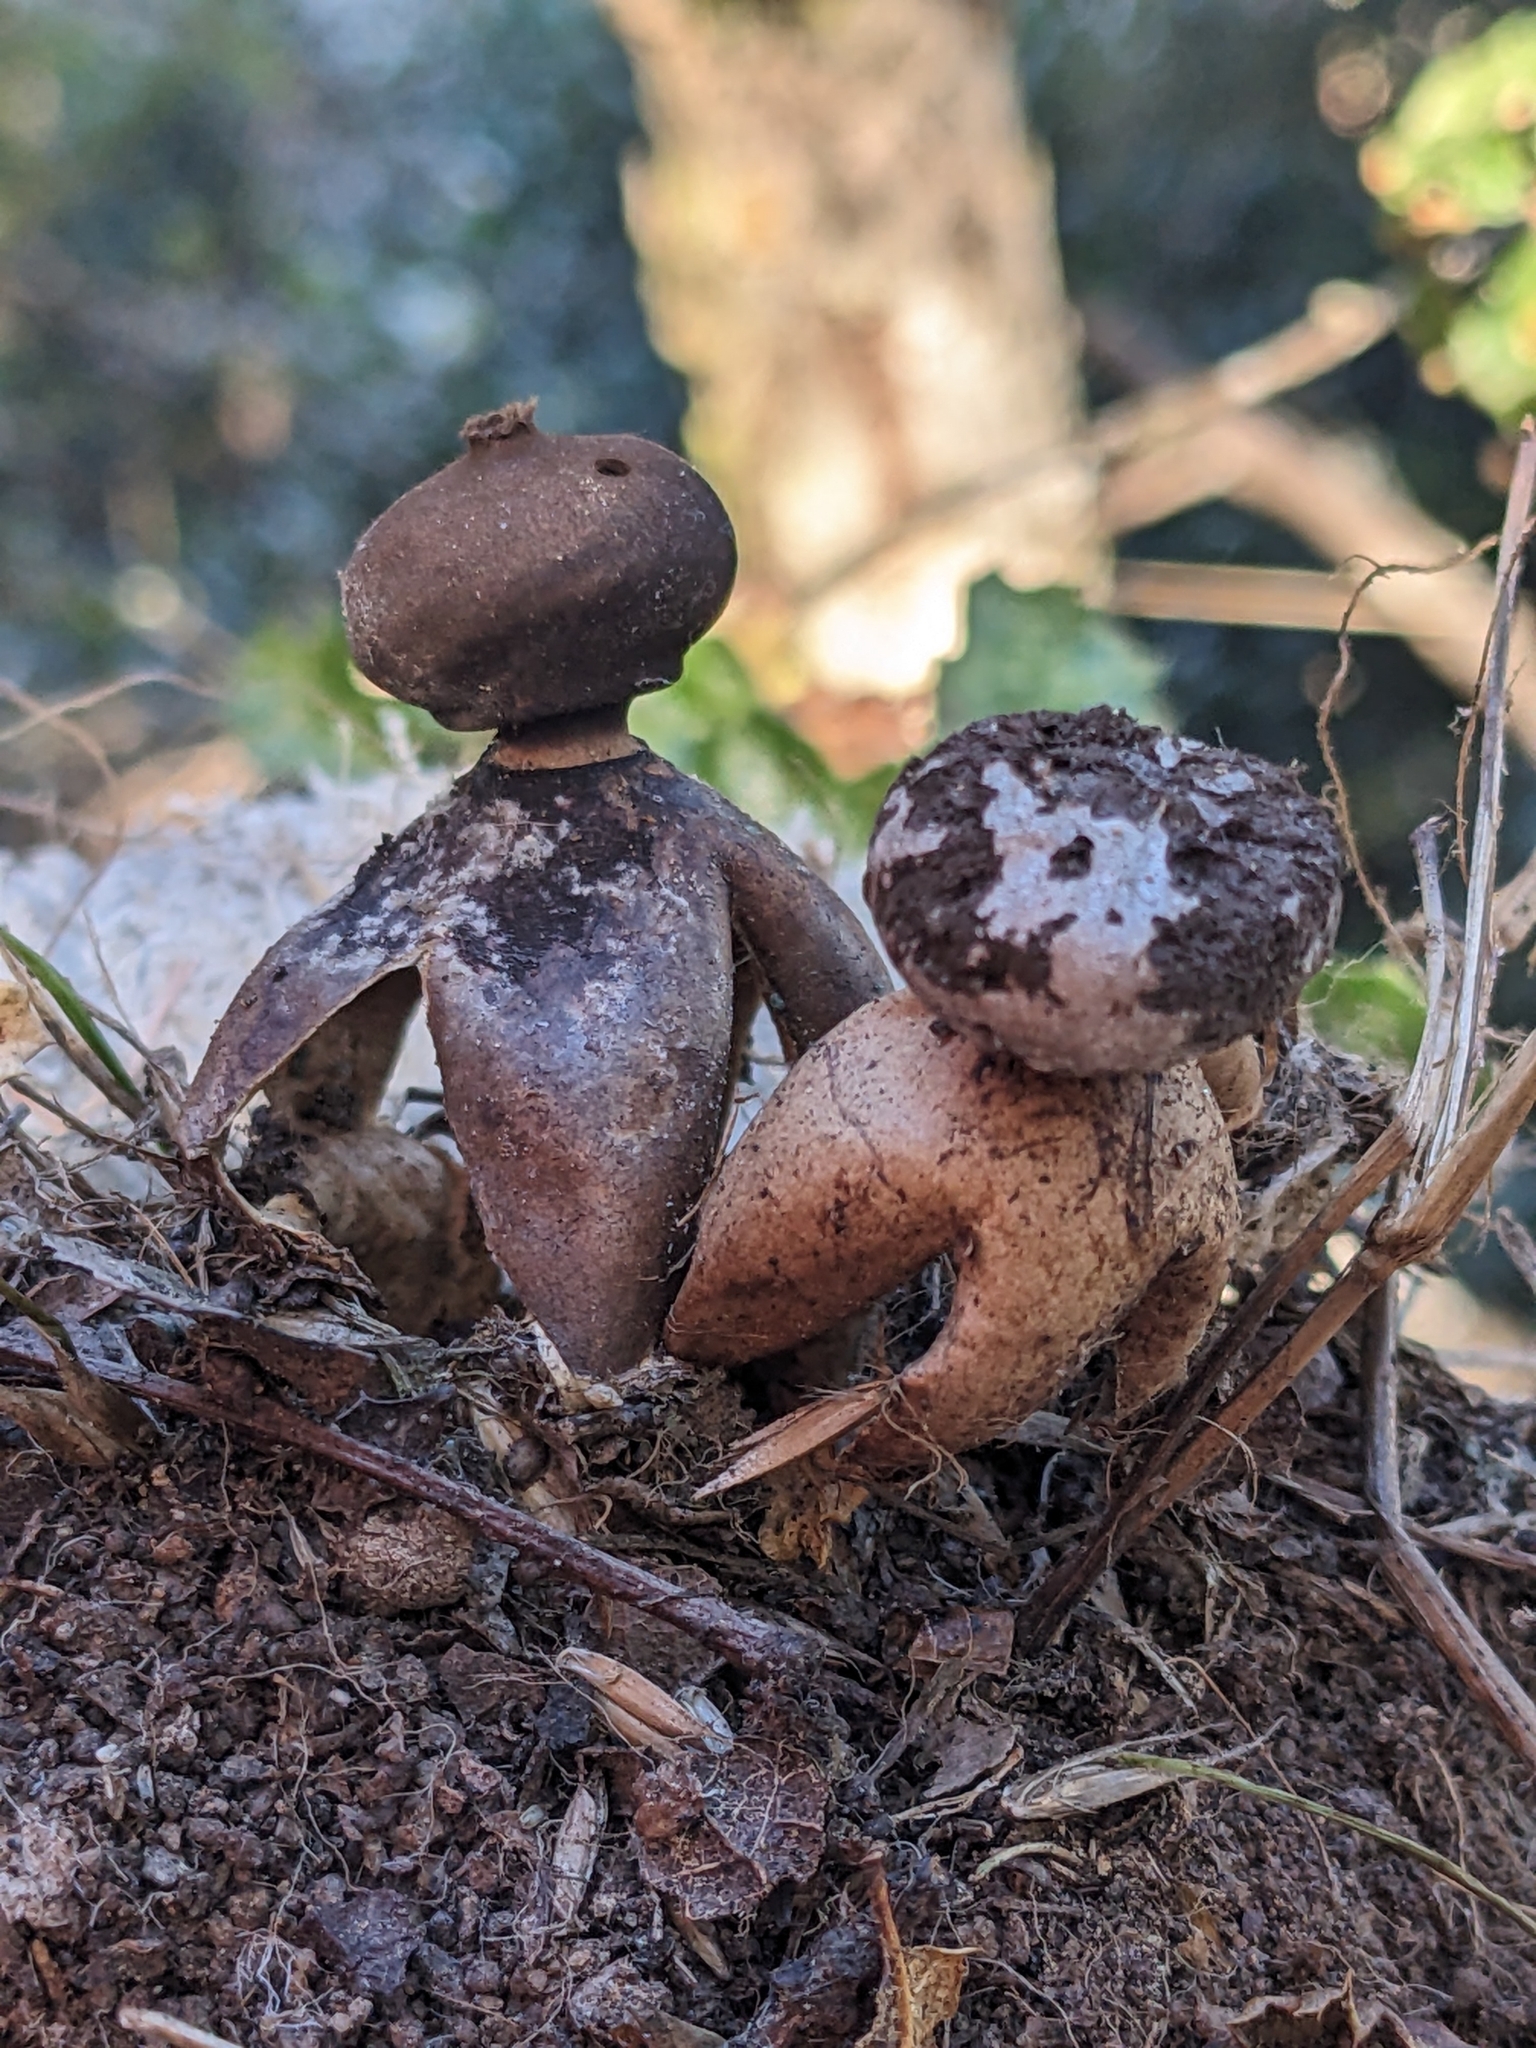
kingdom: Fungi
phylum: Basidiomycota
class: Agaricomycetes
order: Geastrales
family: Geastraceae
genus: Geastrum
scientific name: Geastrum fornicatum
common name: Arched earthstar
